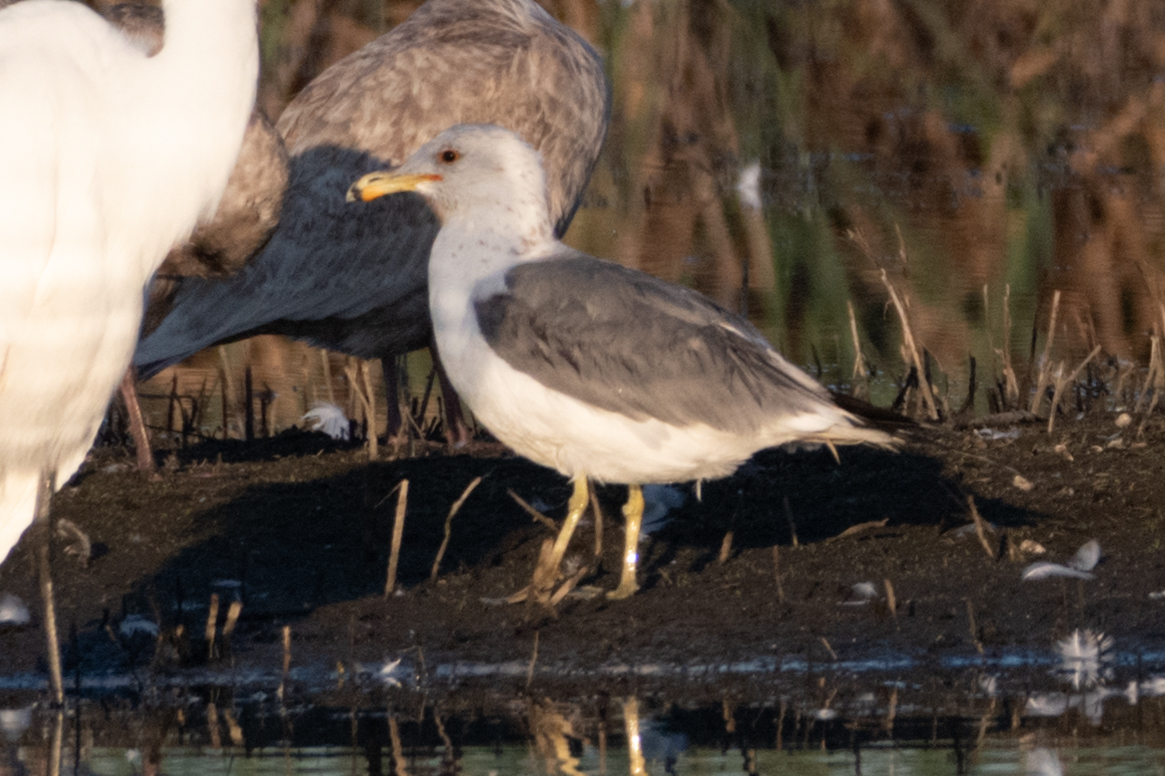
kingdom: Animalia
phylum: Chordata
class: Aves
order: Charadriiformes
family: Laridae
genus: Larus
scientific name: Larus californicus
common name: California gull
